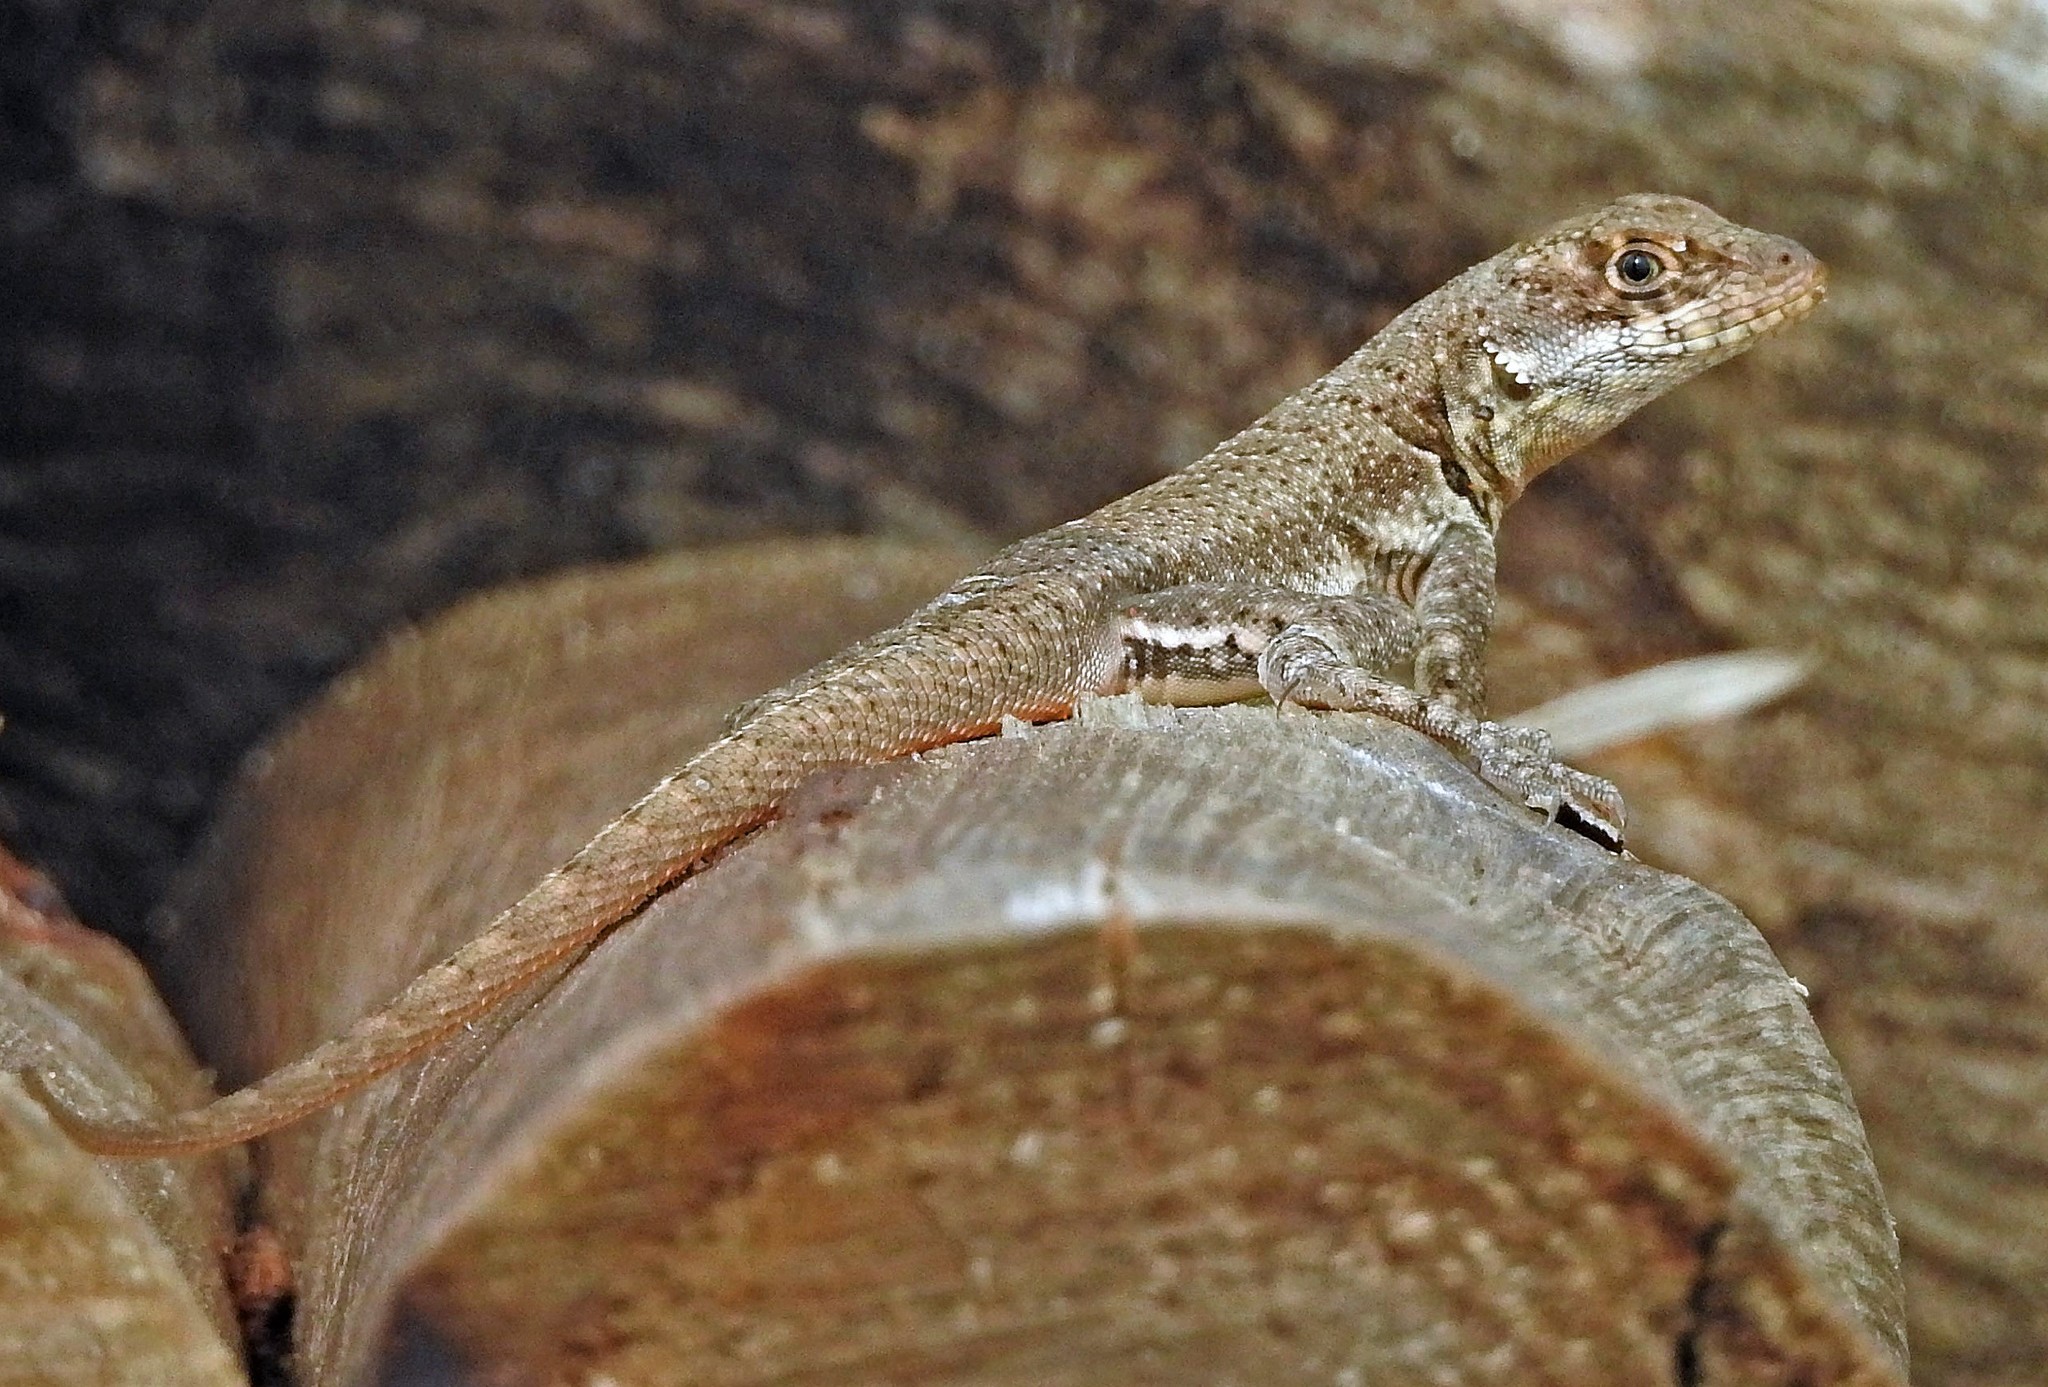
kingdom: Animalia
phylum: Chordata
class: Squamata
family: Tropiduridae
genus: Tropidurus
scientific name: Tropidurus catalanensis
